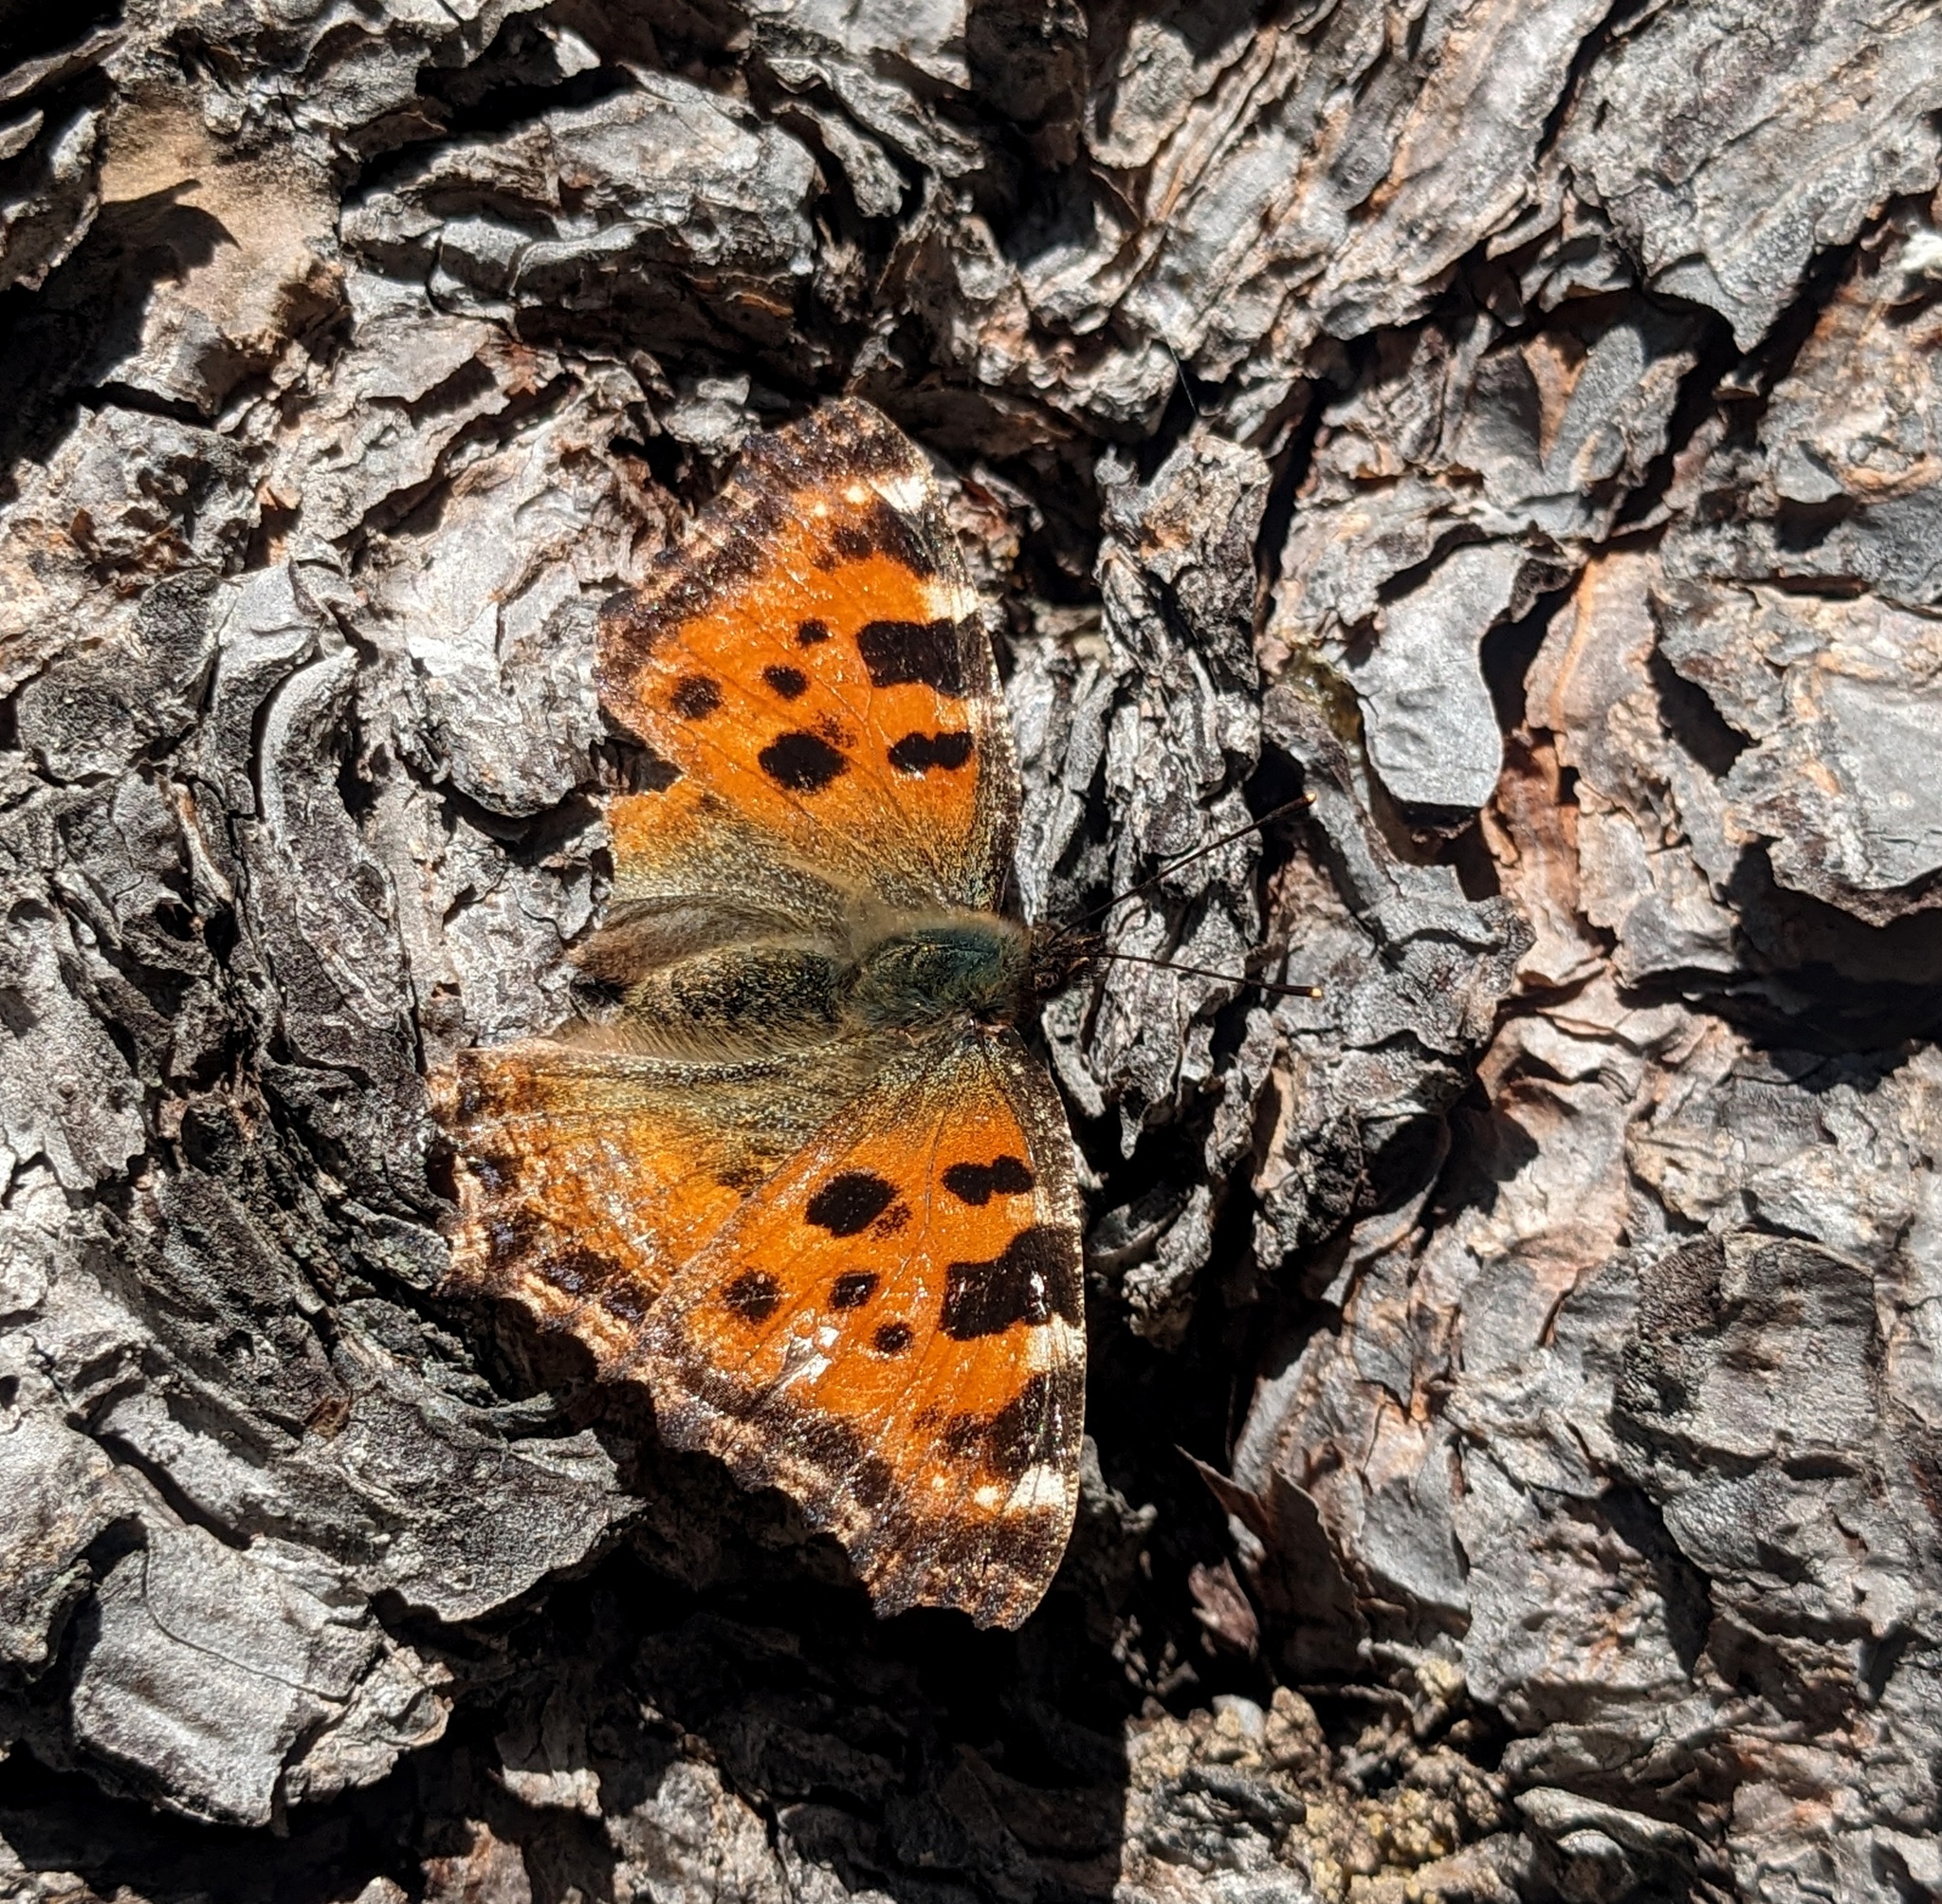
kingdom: Animalia
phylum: Arthropoda
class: Insecta
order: Lepidoptera
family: Nymphalidae
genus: Nymphalis
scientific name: Nymphalis polychloros
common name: Large tortoiseshell
